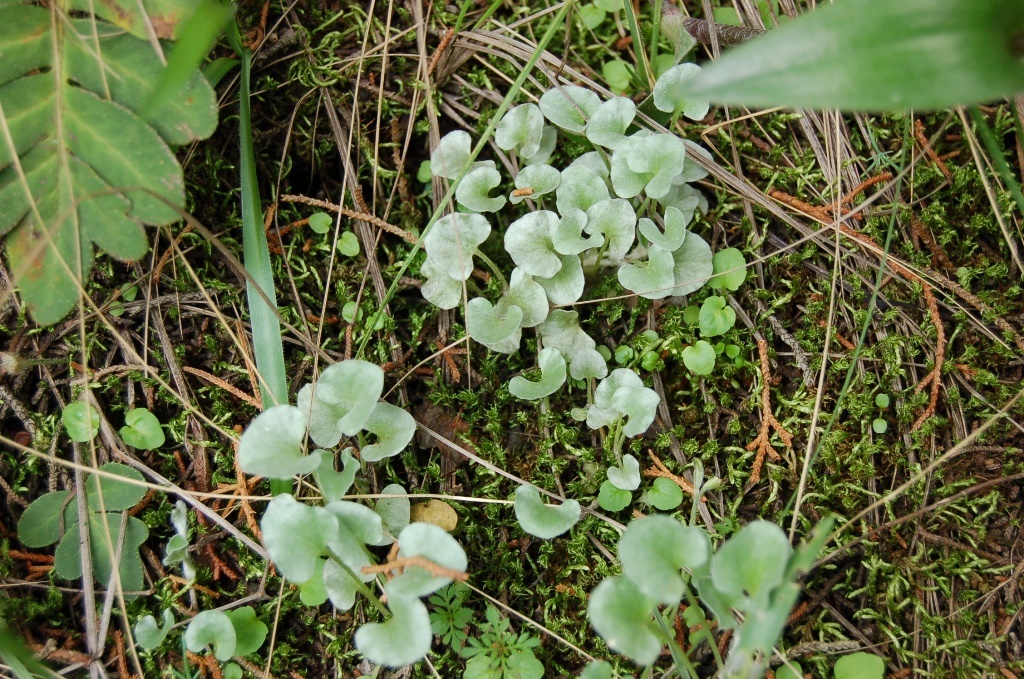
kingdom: Plantae
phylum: Tracheophyta
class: Magnoliopsida
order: Solanales
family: Convolvulaceae
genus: Dichondra
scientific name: Dichondra sericea
